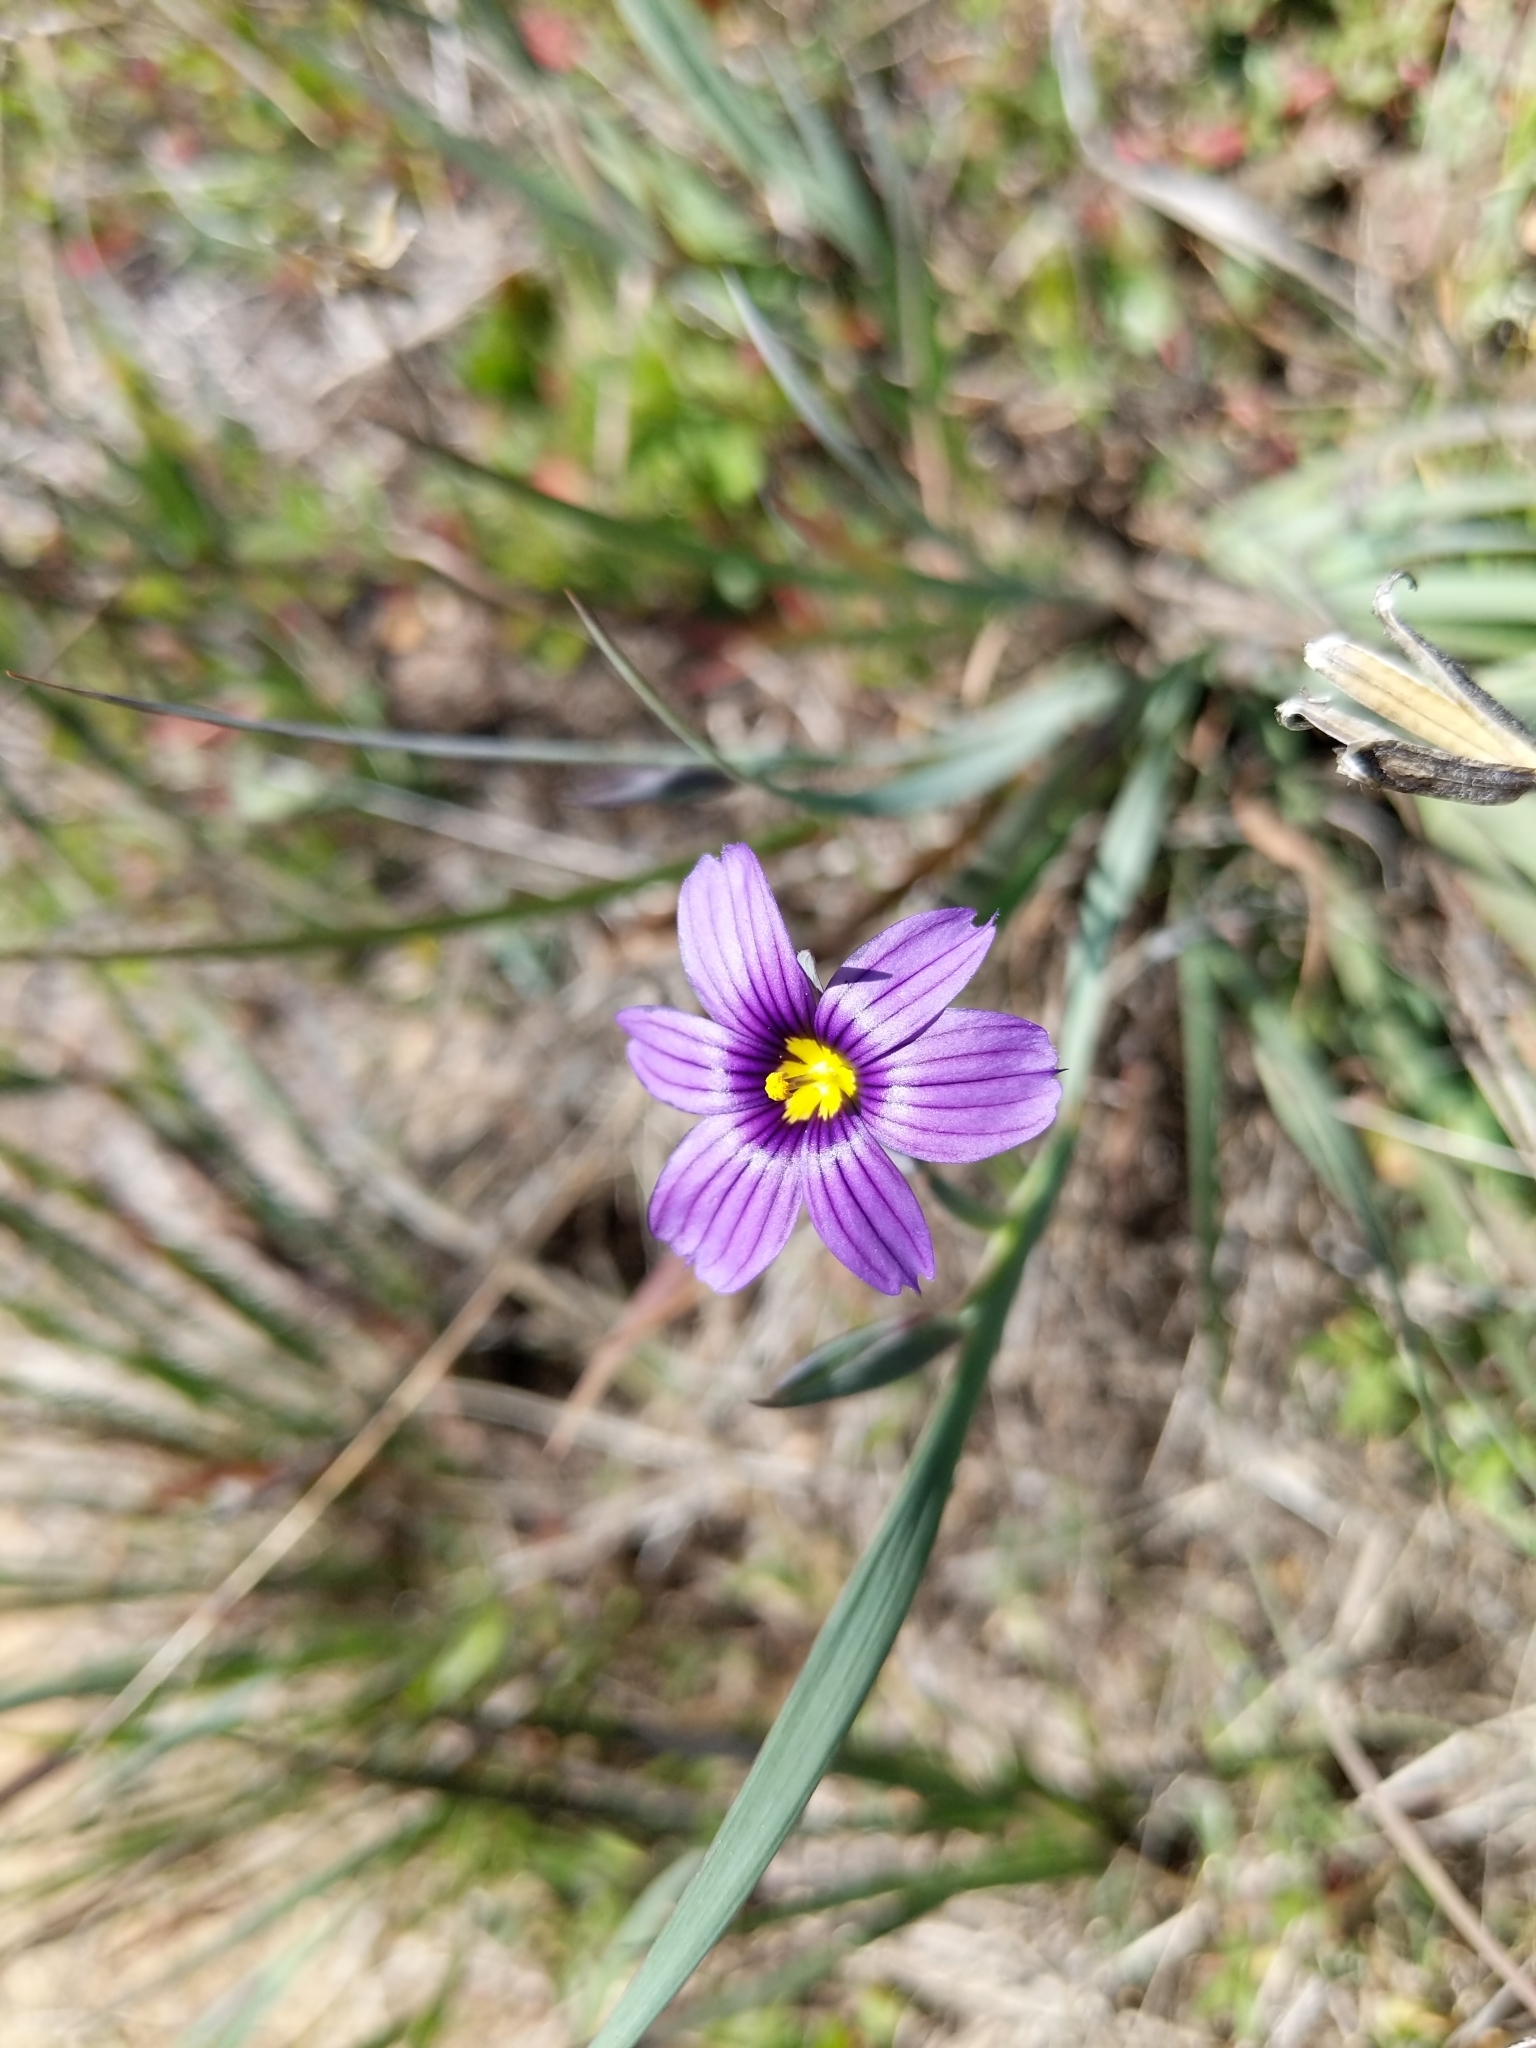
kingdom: Plantae
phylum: Tracheophyta
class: Liliopsida
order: Asparagales
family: Iridaceae
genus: Sisyrinchium
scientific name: Sisyrinchium bellum
